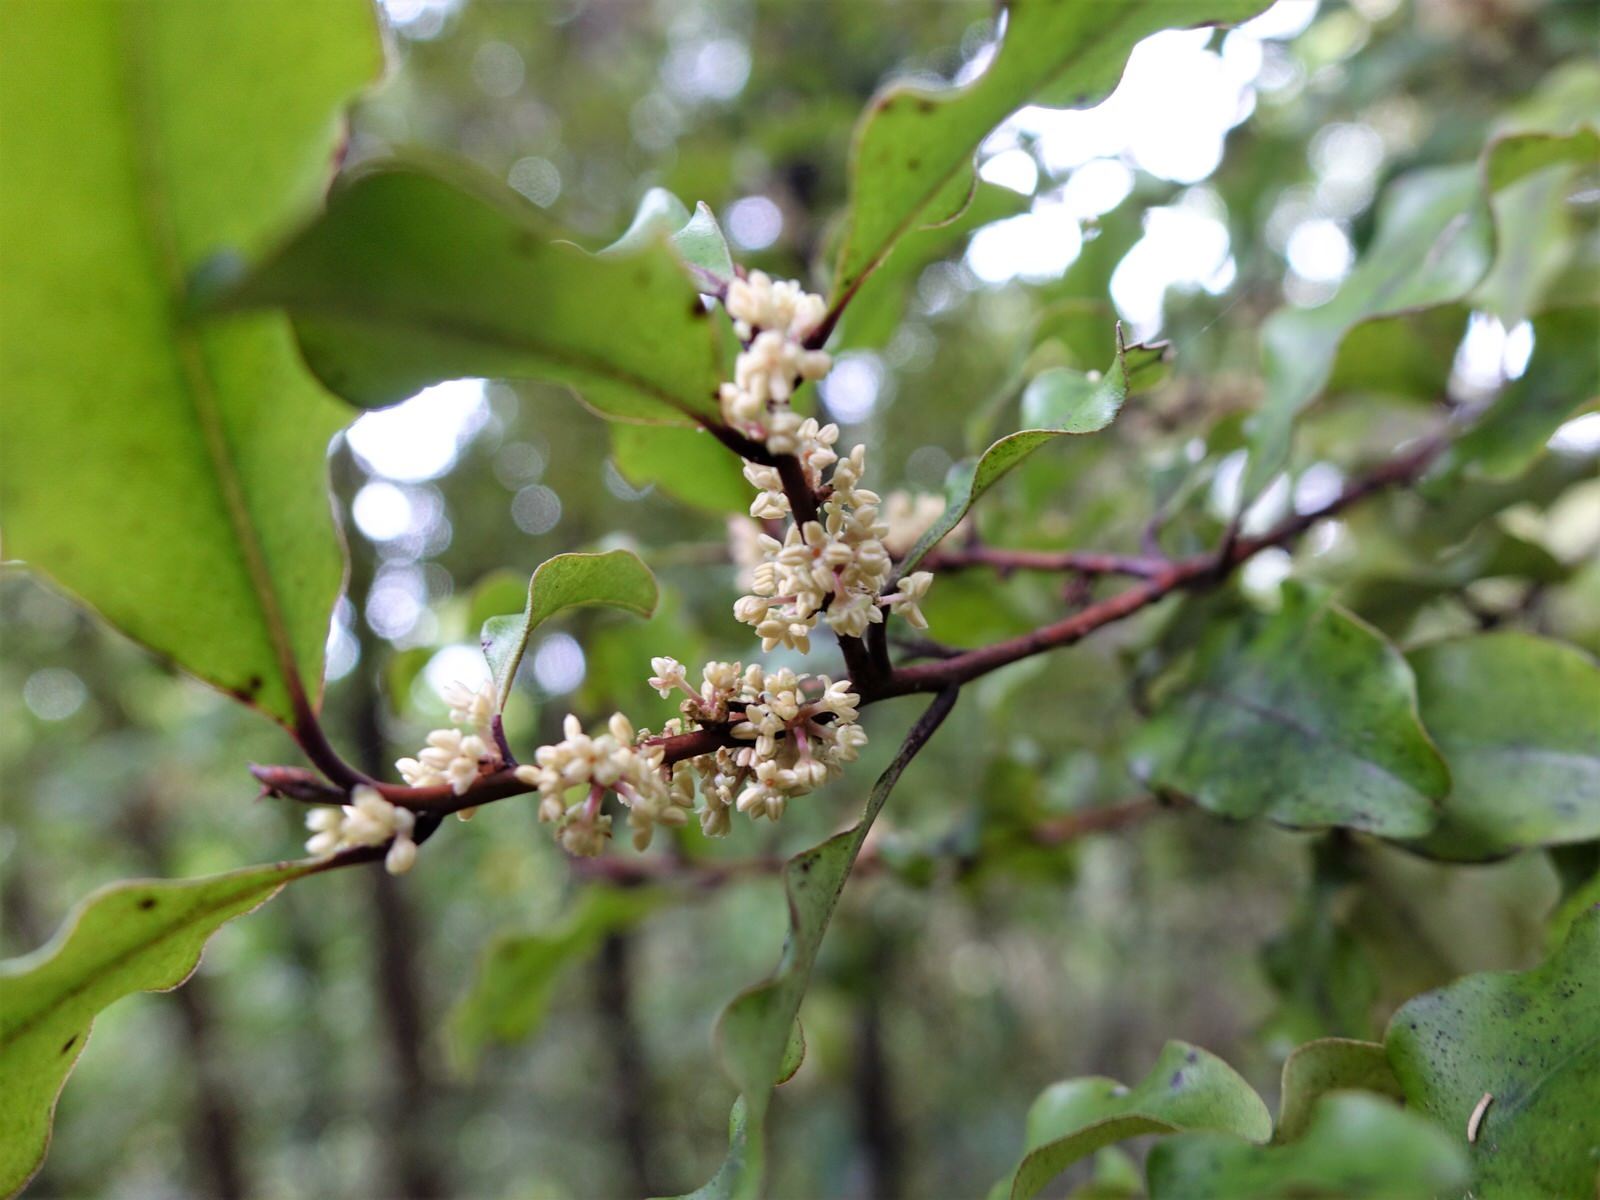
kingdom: Plantae
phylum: Tracheophyta
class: Magnoliopsida
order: Ericales
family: Primulaceae
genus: Myrsine
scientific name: Myrsine australis
